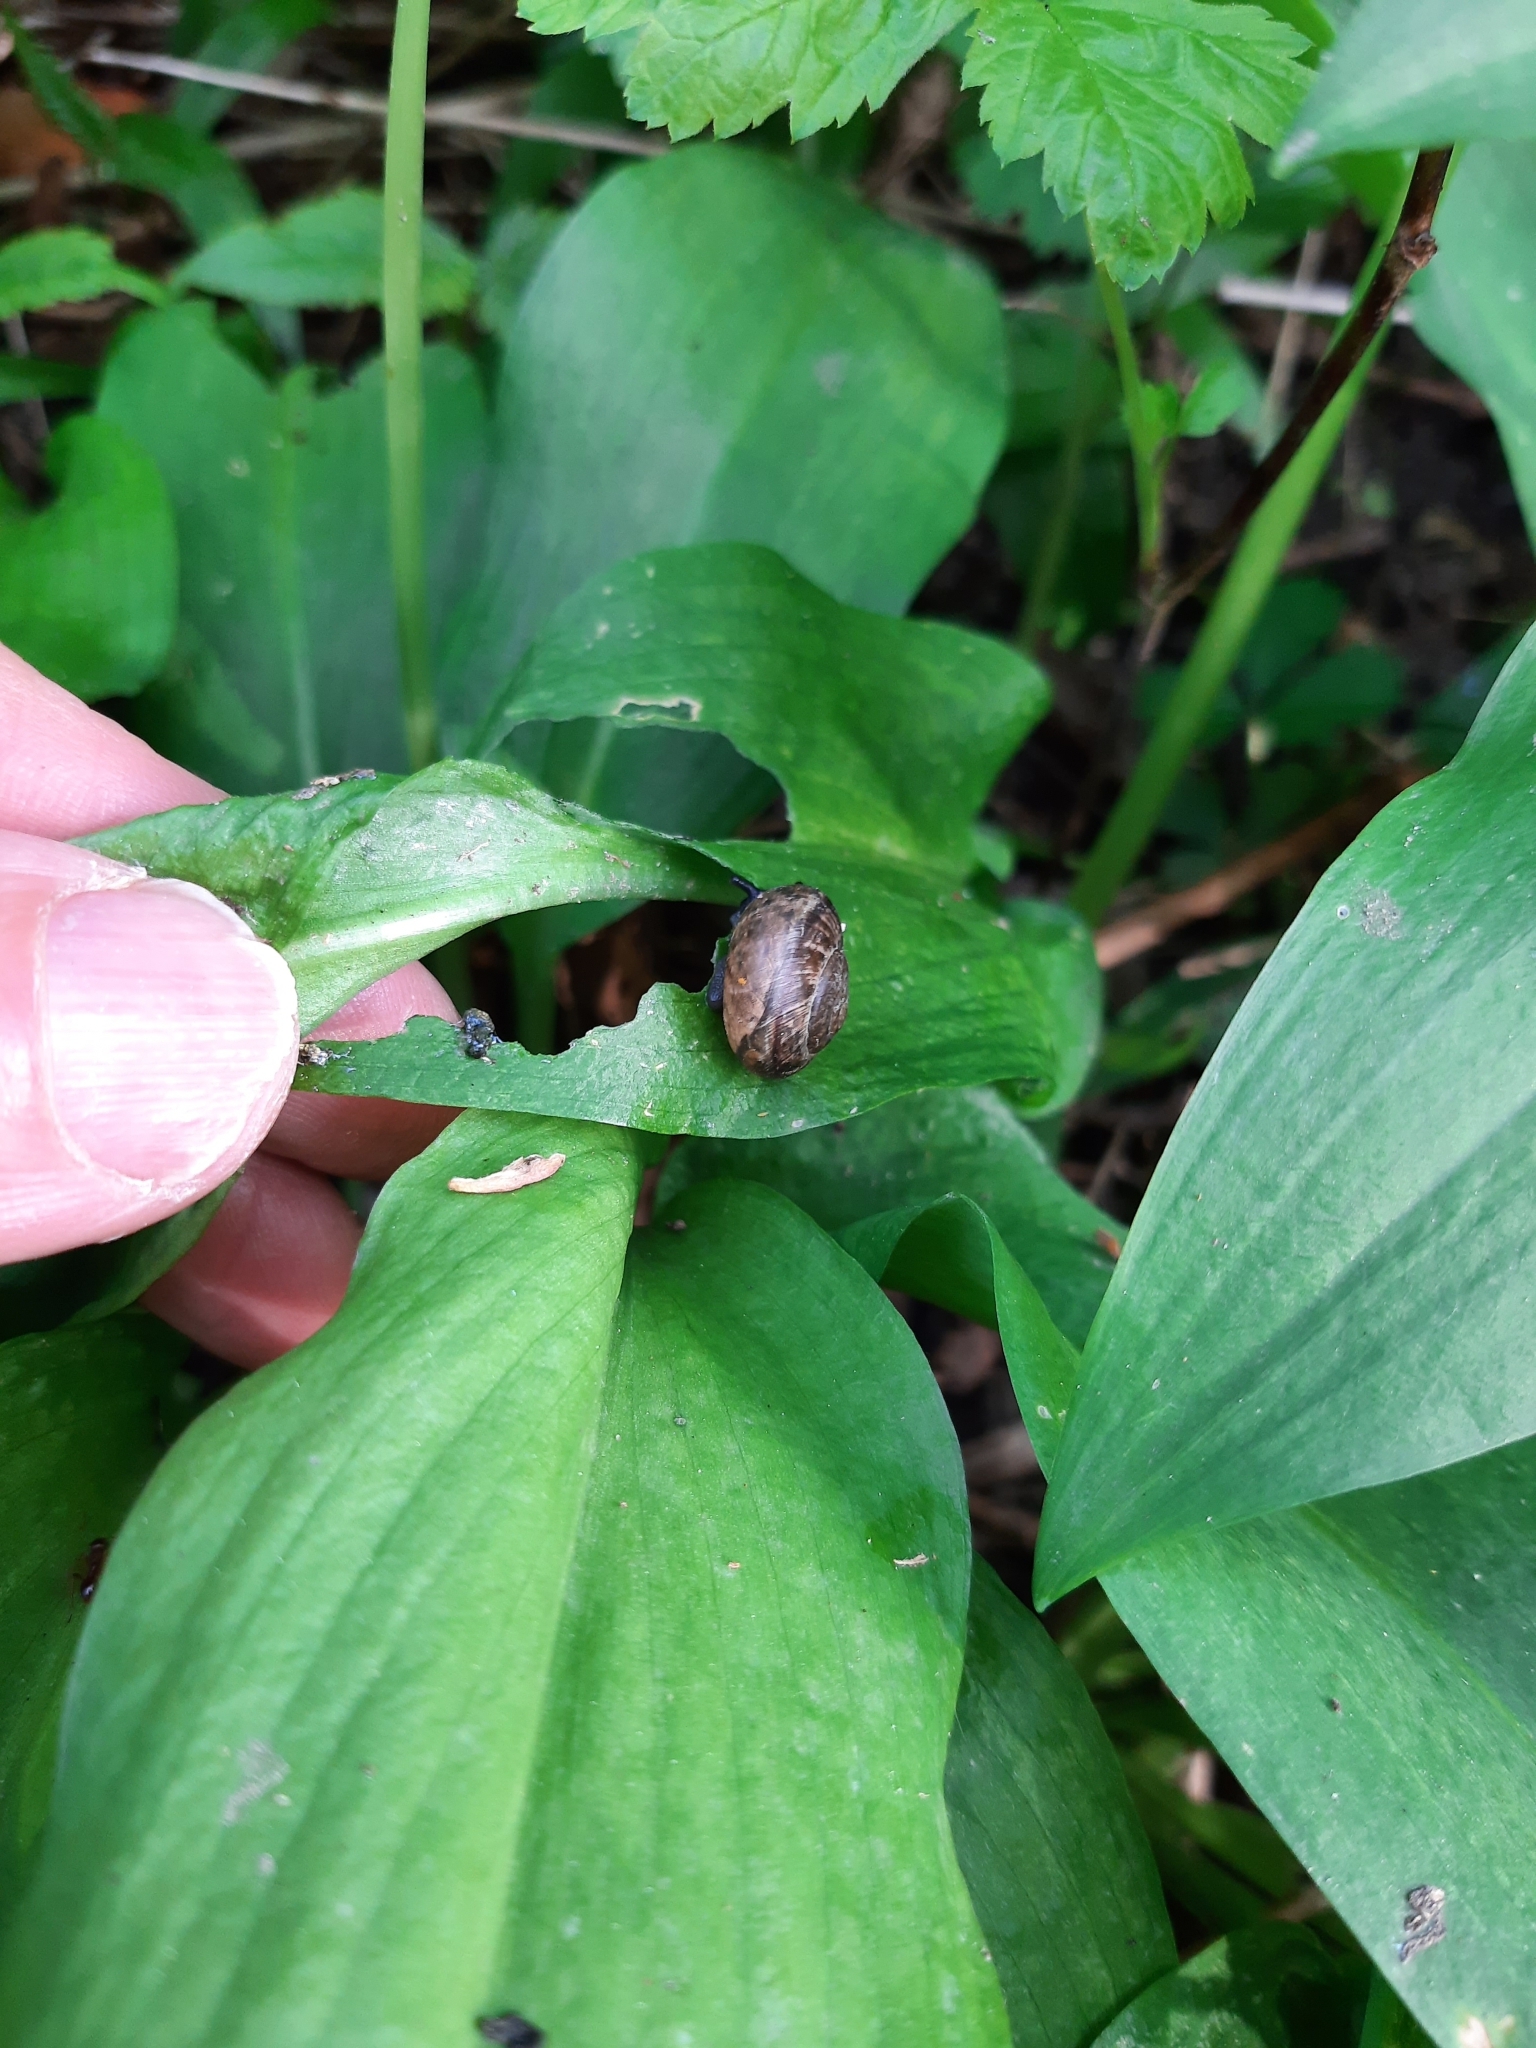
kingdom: Animalia
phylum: Mollusca
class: Gastropoda
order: Stylommatophora
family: Helicidae
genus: Arianta
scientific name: Arianta arbustorum
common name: Copse snail
